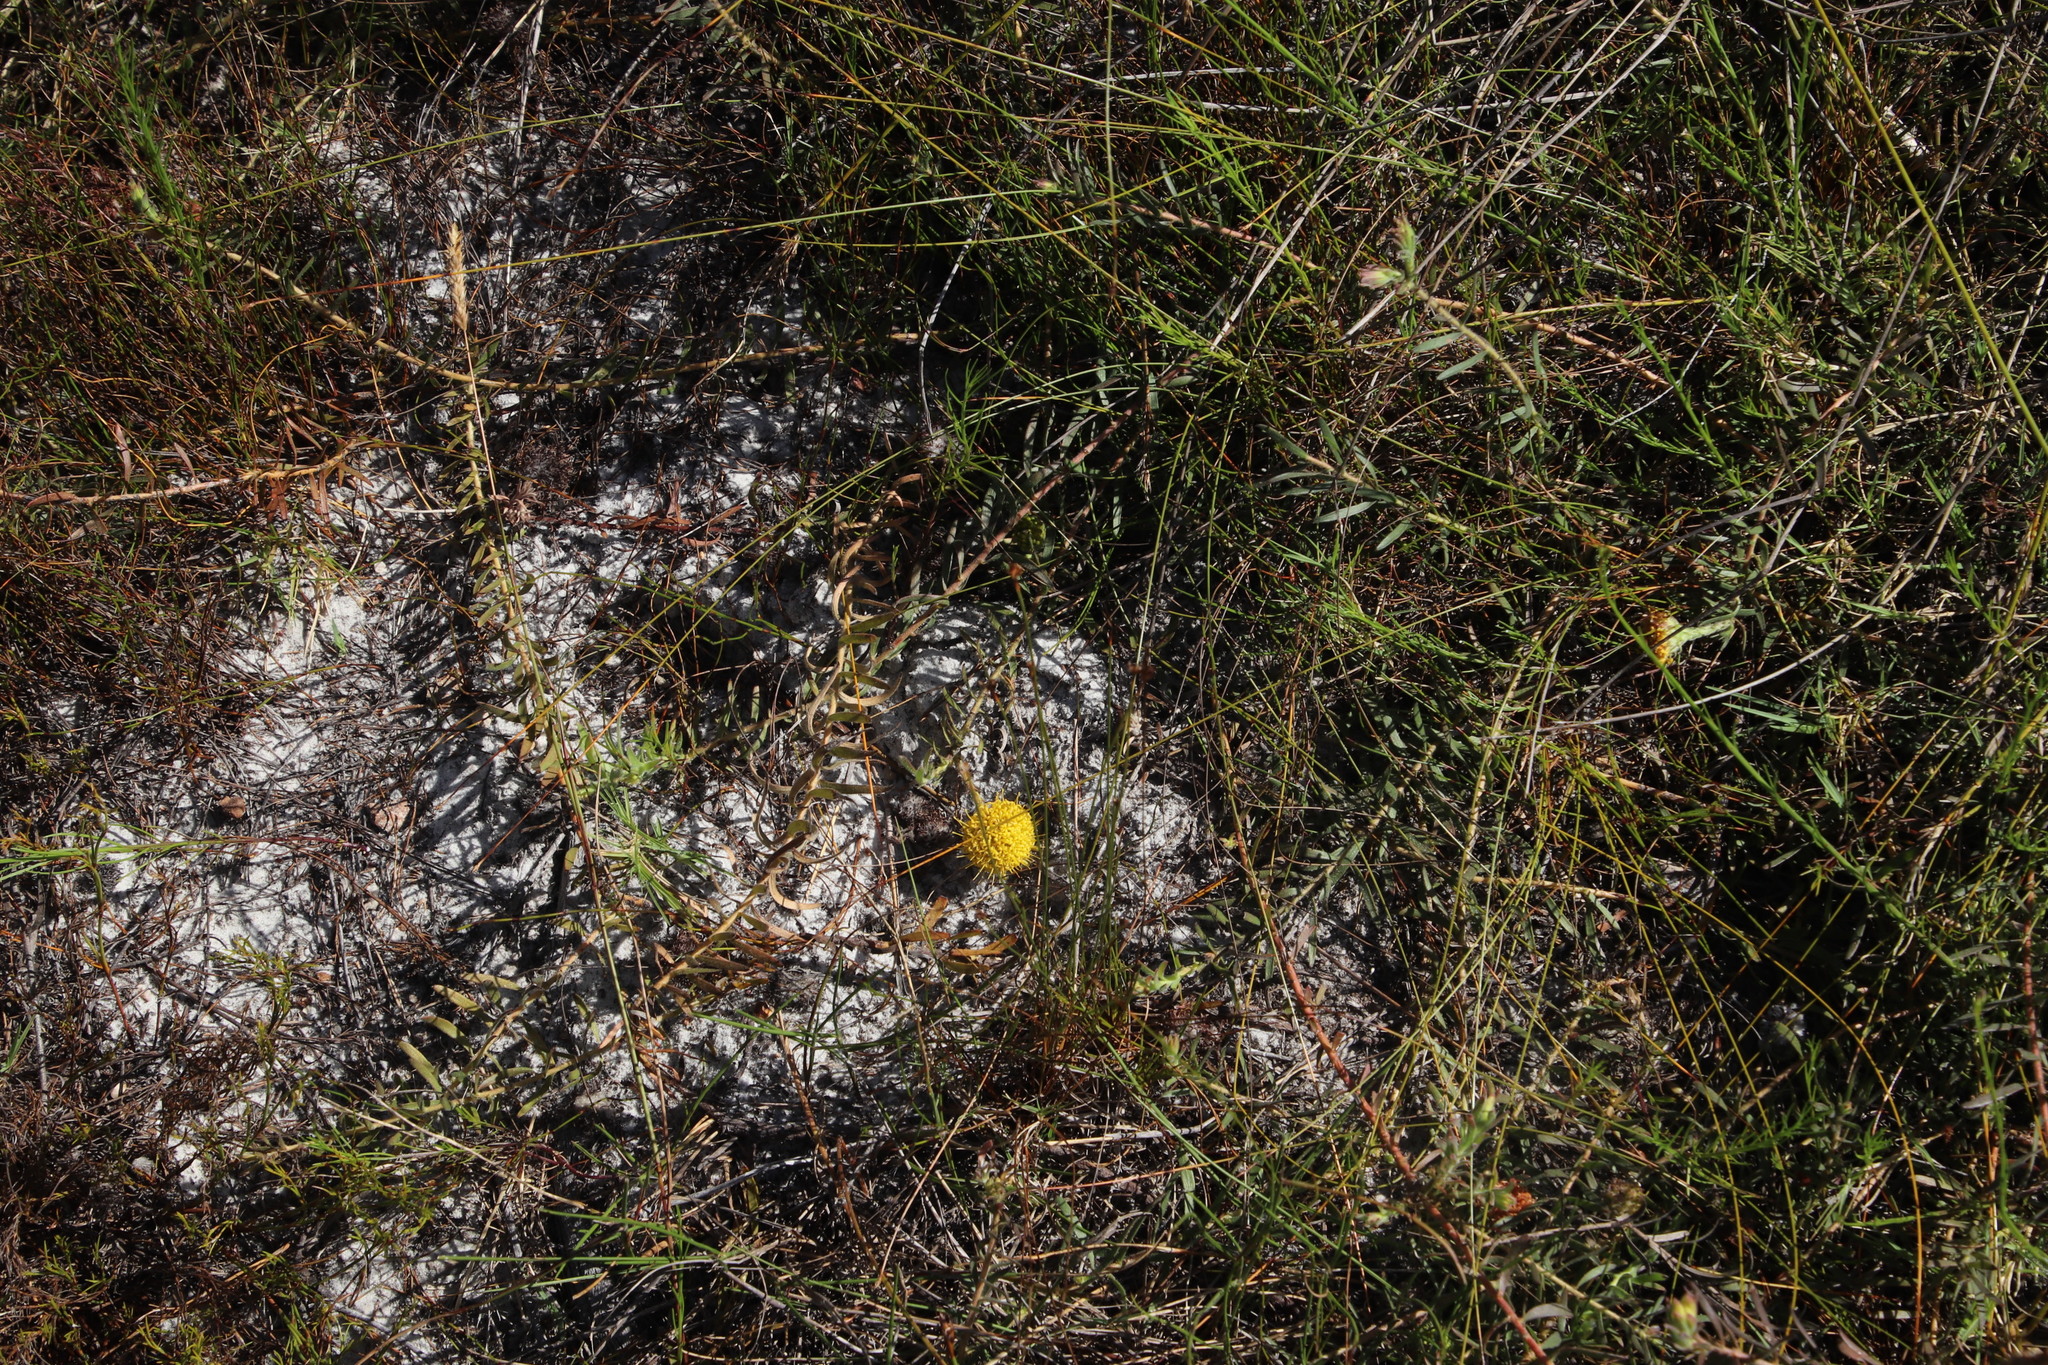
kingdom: Plantae
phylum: Tracheophyta
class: Magnoliopsida
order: Proteales
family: Proteaceae
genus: Leucospermum
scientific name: Leucospermum prostratum
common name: Yellow-trailing pincushion
